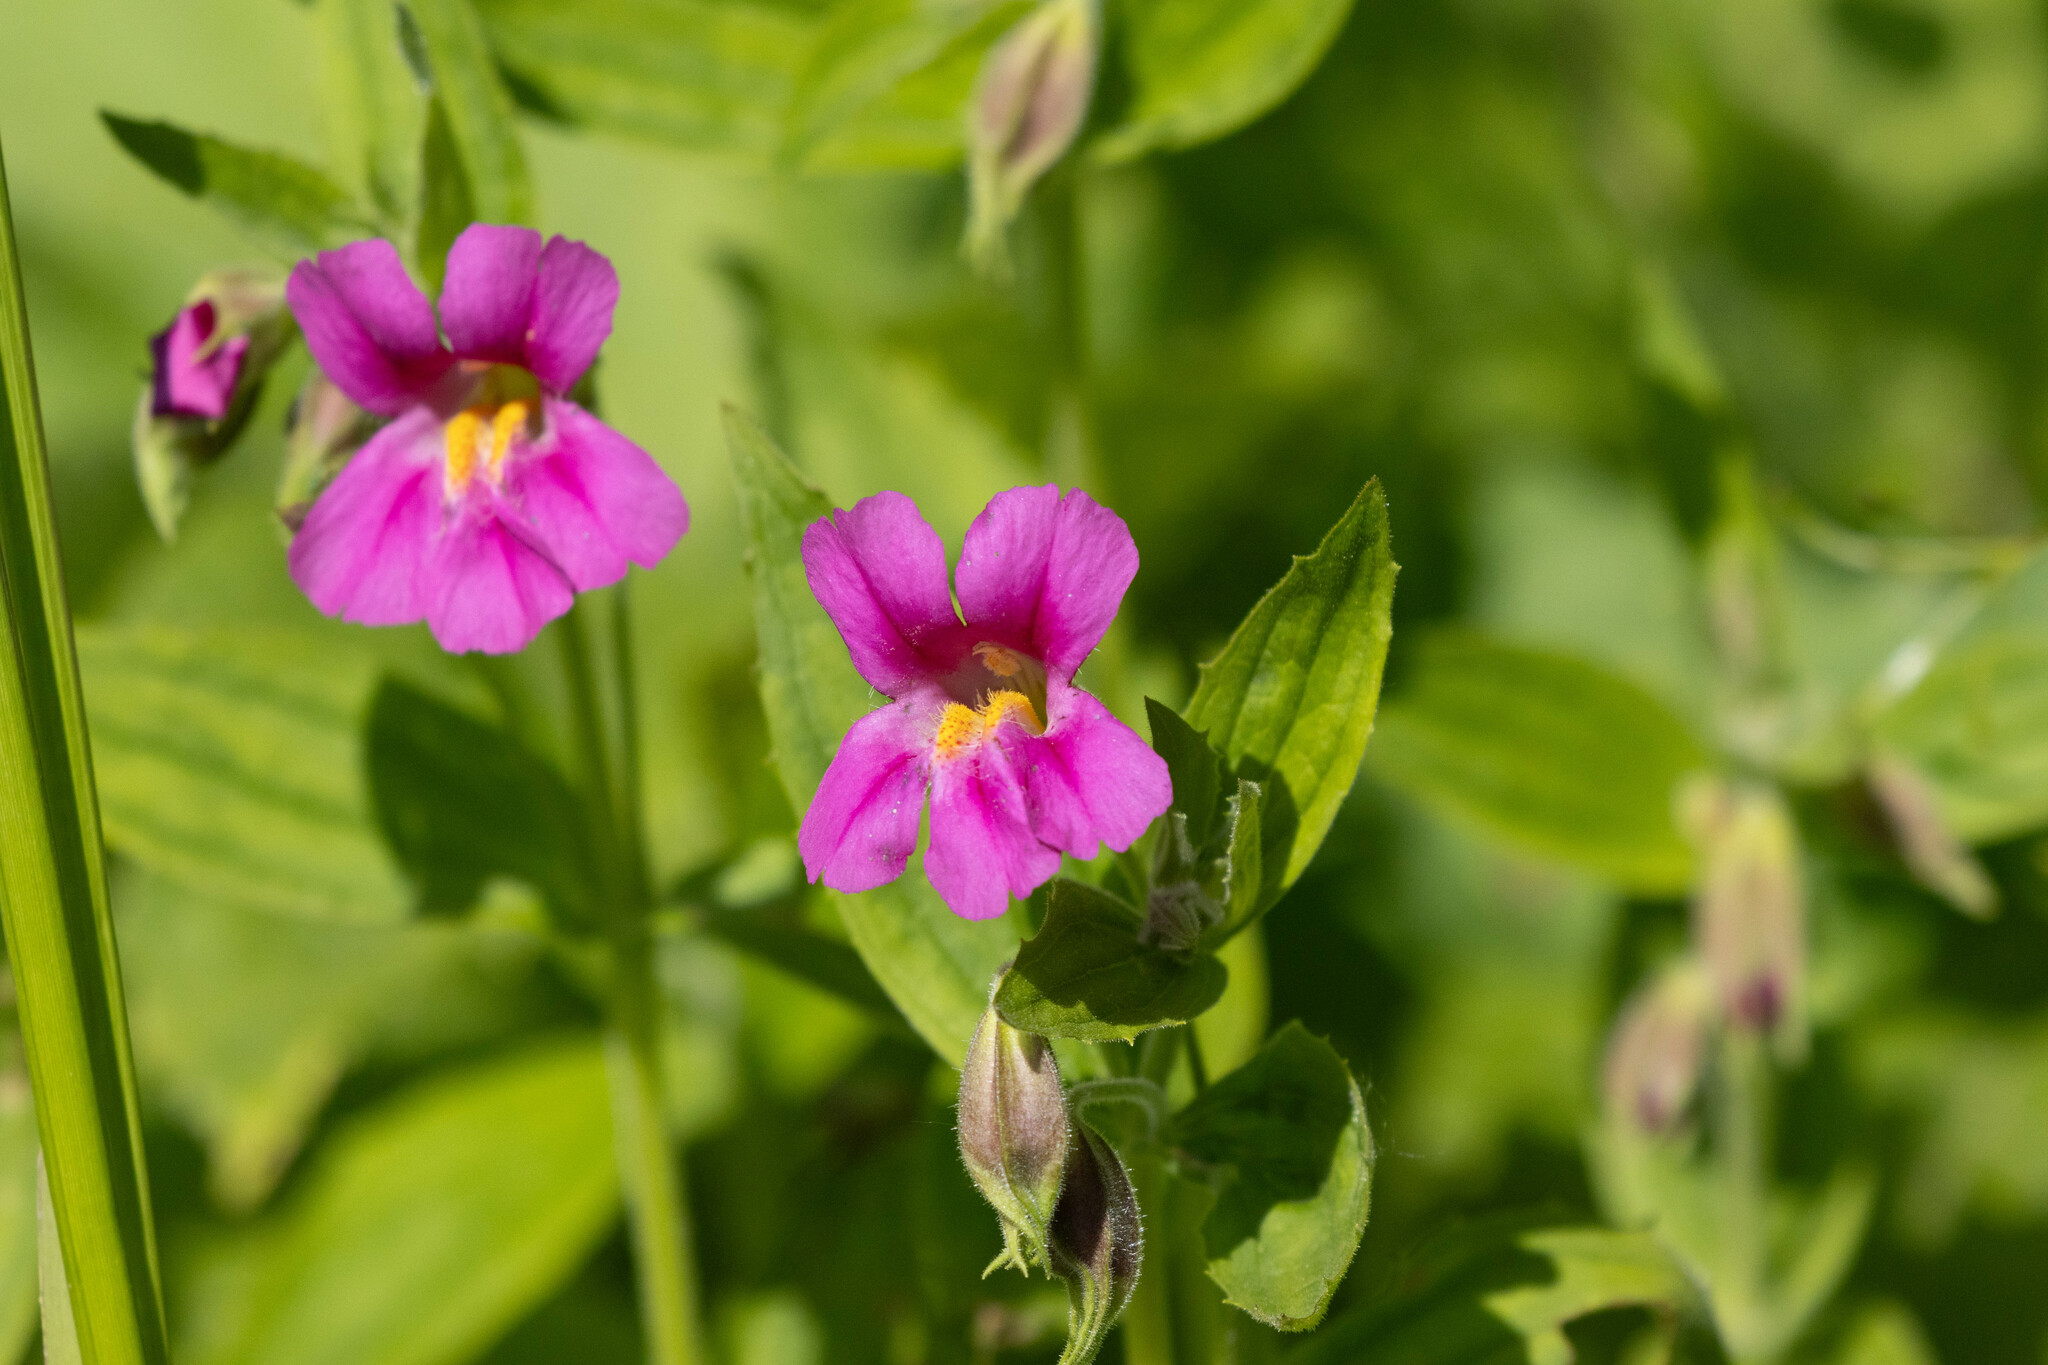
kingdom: Plantae
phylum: Tracheophyta
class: Magnoliopsida
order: Lamiales
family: Phrymaceae
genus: Erythranthe
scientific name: Erythranthe lewisii
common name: Lewis's monkey-flower
